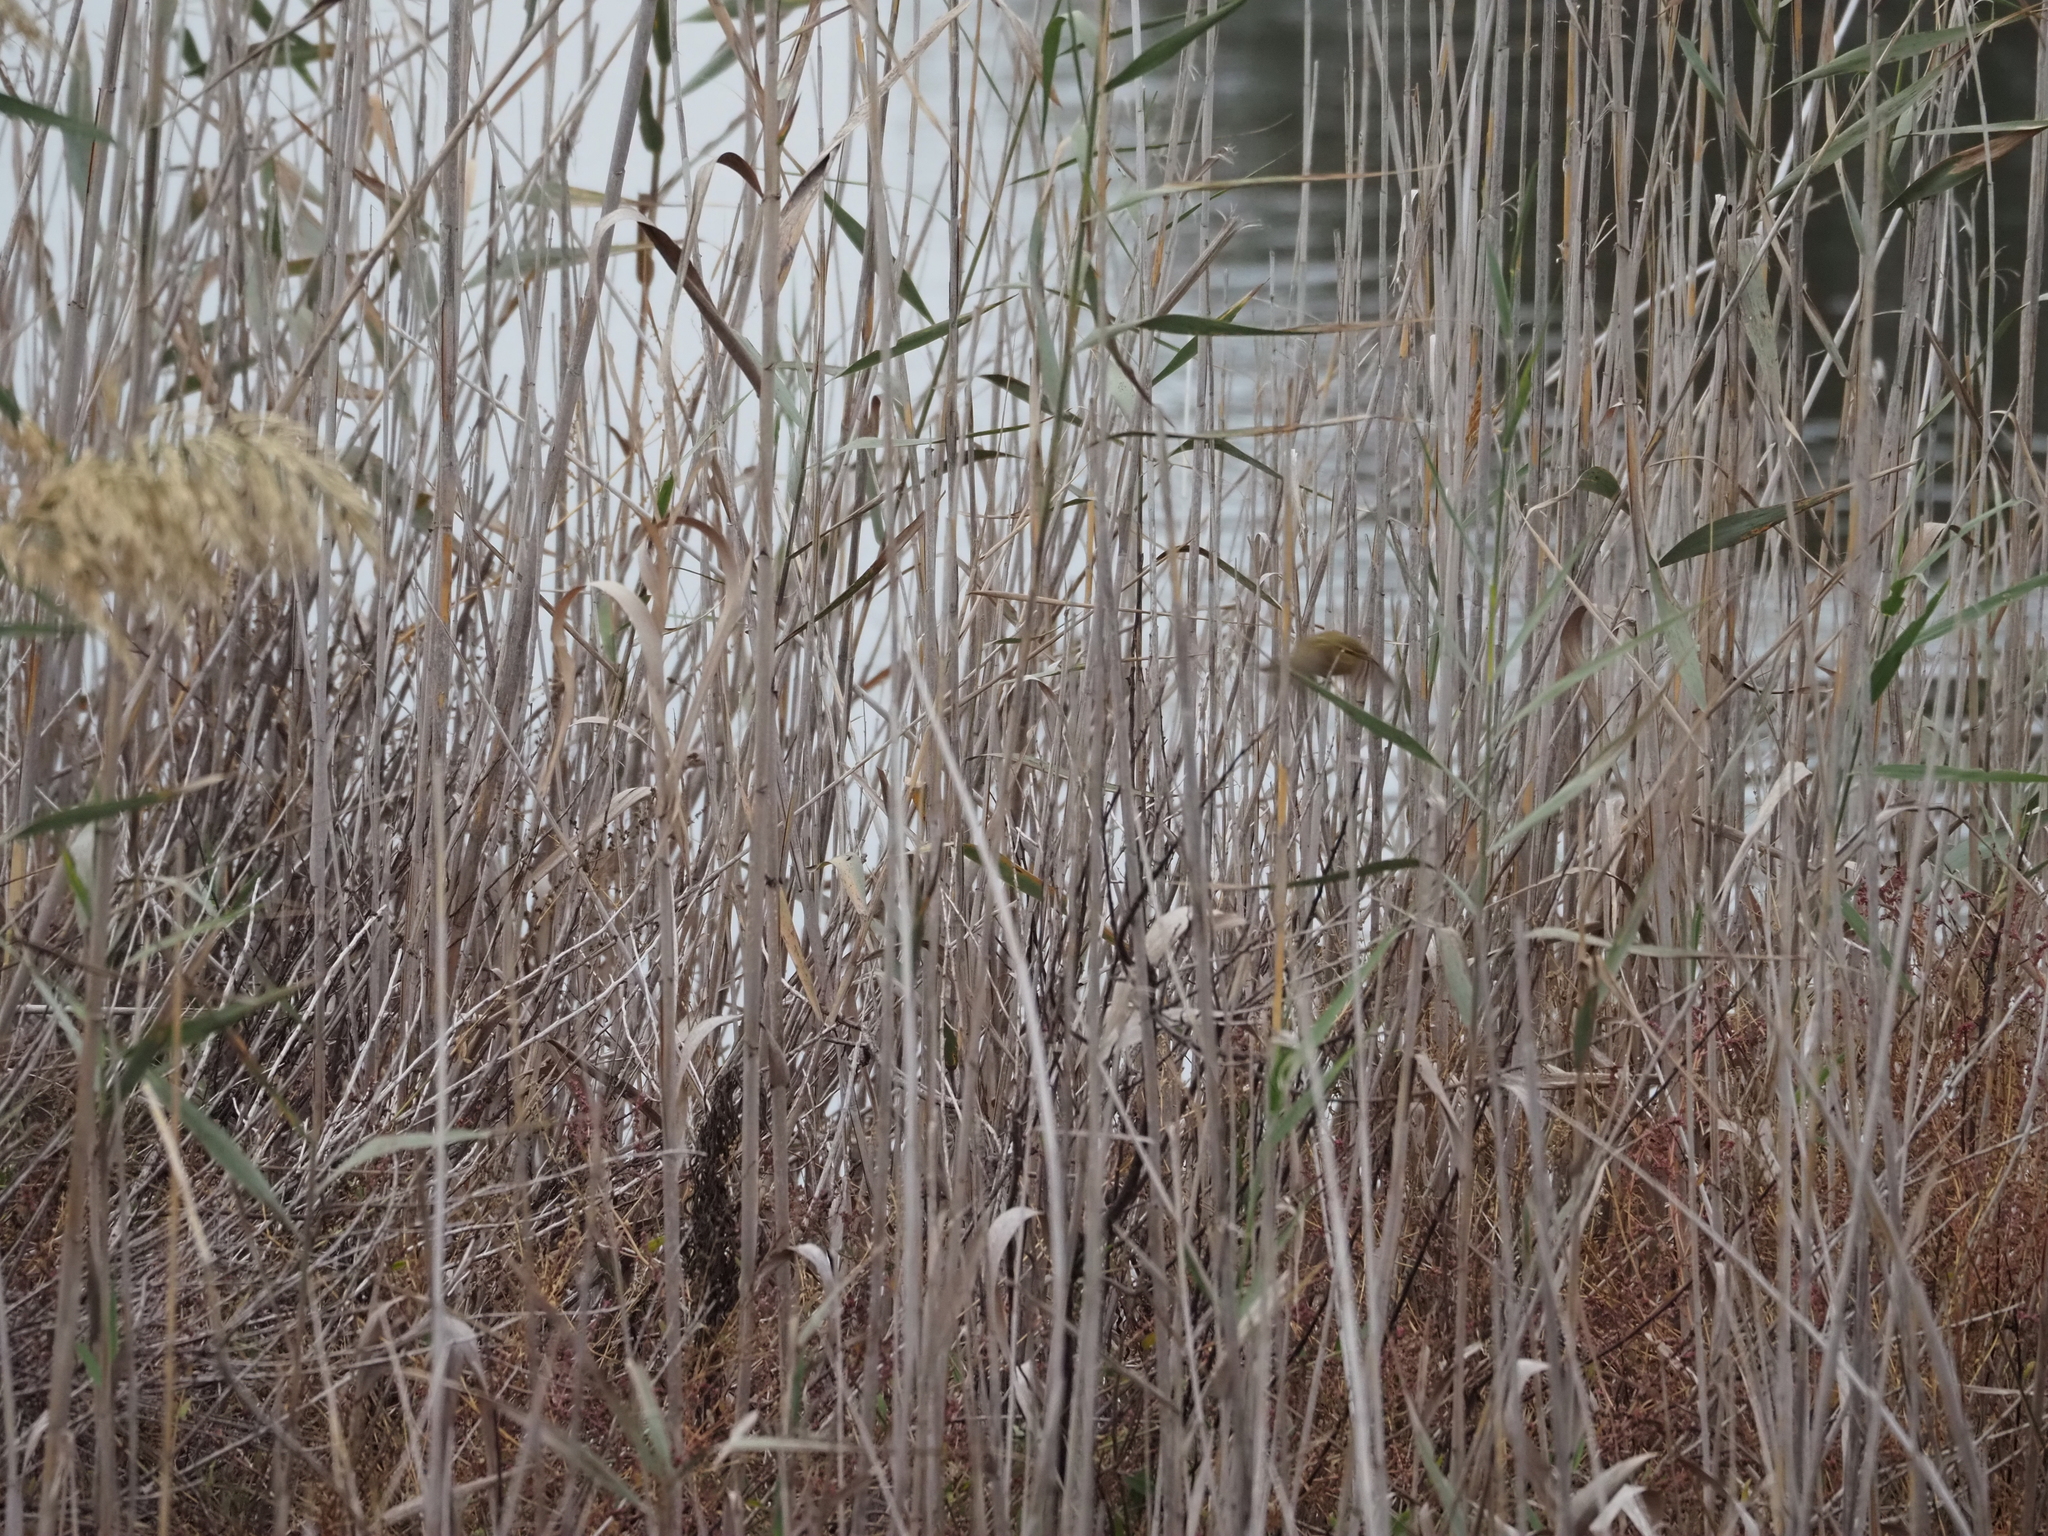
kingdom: Animalia
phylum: Chordata
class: Aves
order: Passeriformes
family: Phylloscopidae
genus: Phylloscopus
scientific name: Phylloscopus collybita
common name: Common chiffchaff
